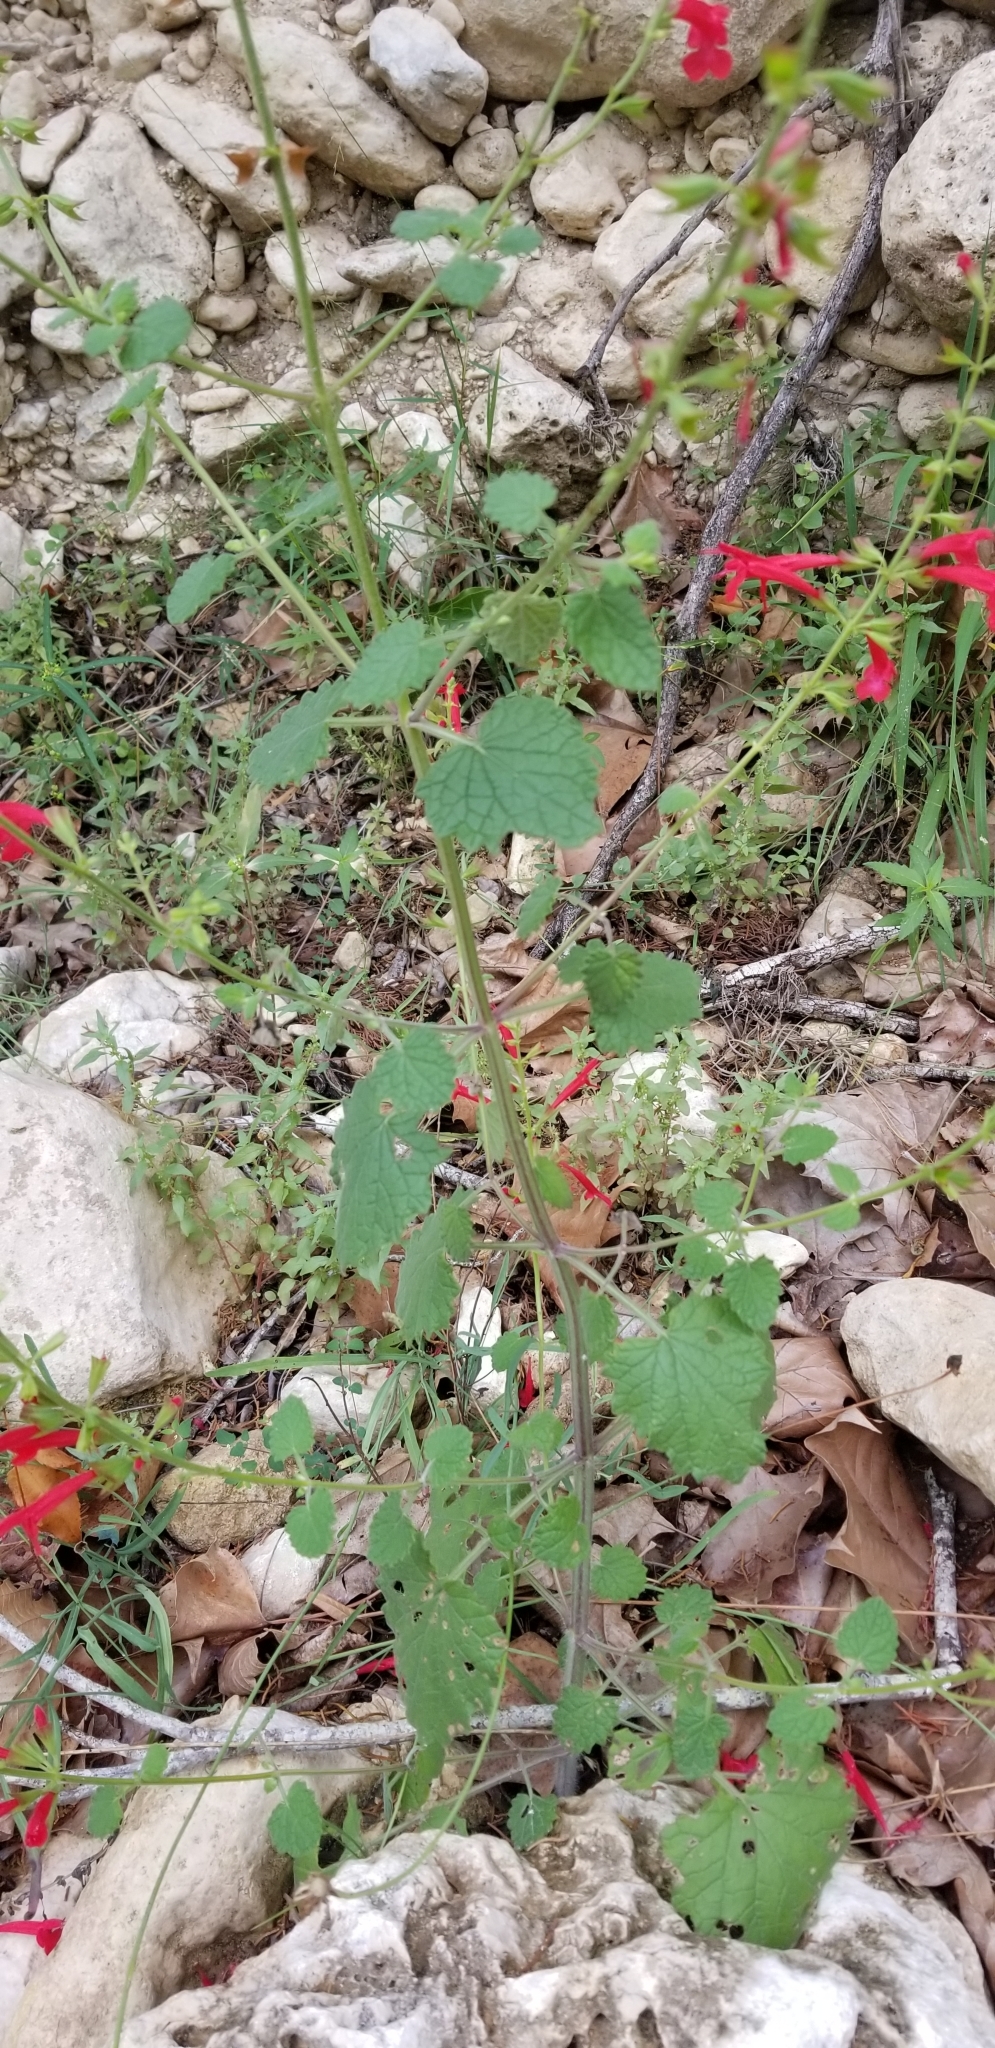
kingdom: Plantae
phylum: Tracheophyta
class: Magnoliopsida
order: Lamiales
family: Lamiaceae
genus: Salvia
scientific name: Salvia roemeriana
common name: Cedar sage
